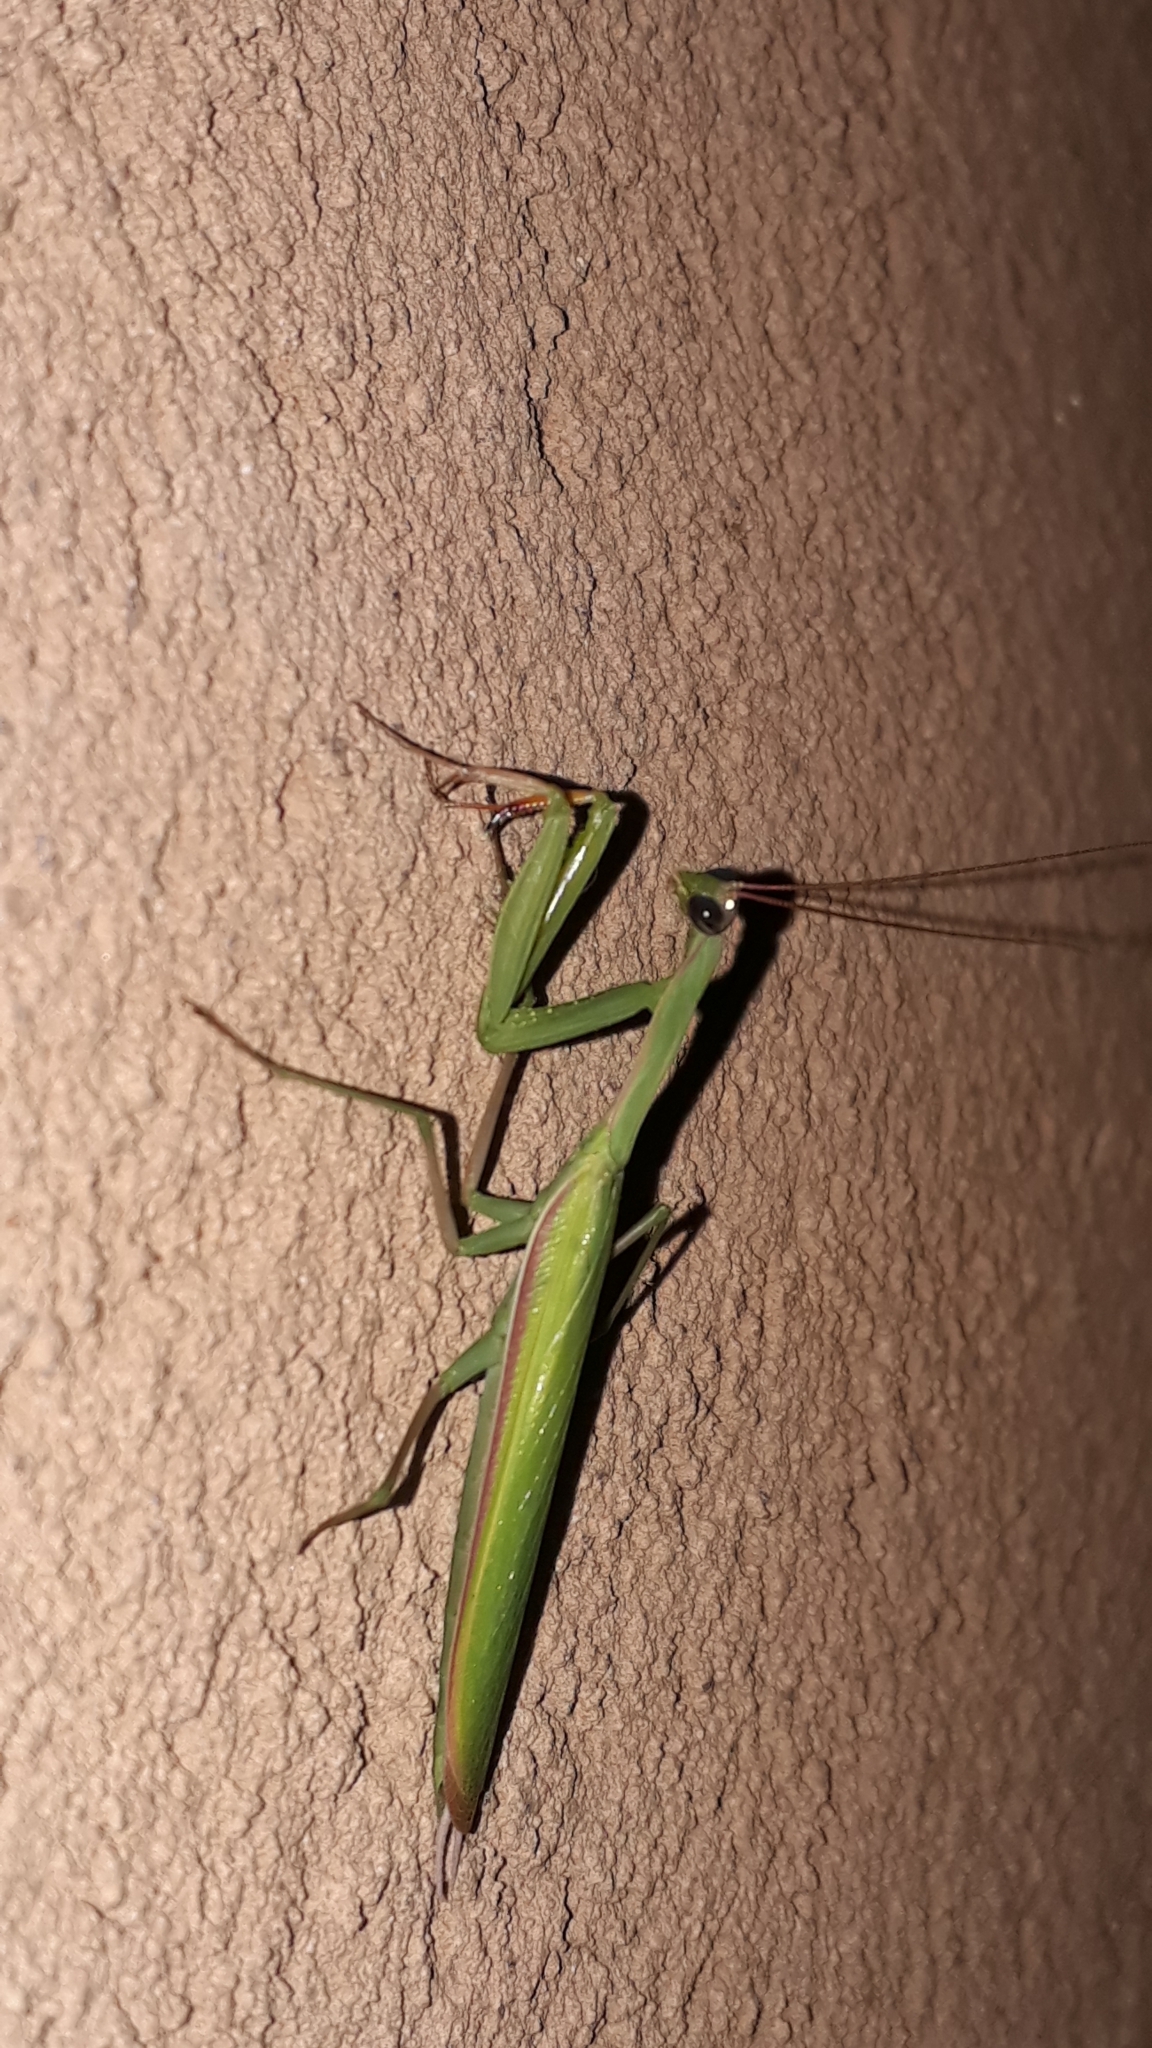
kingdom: Animalia
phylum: Arthropoda
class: Insecta
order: Mantodea
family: Mantidae
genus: Mantis
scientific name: Mantis religiosa
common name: Praying mantis
